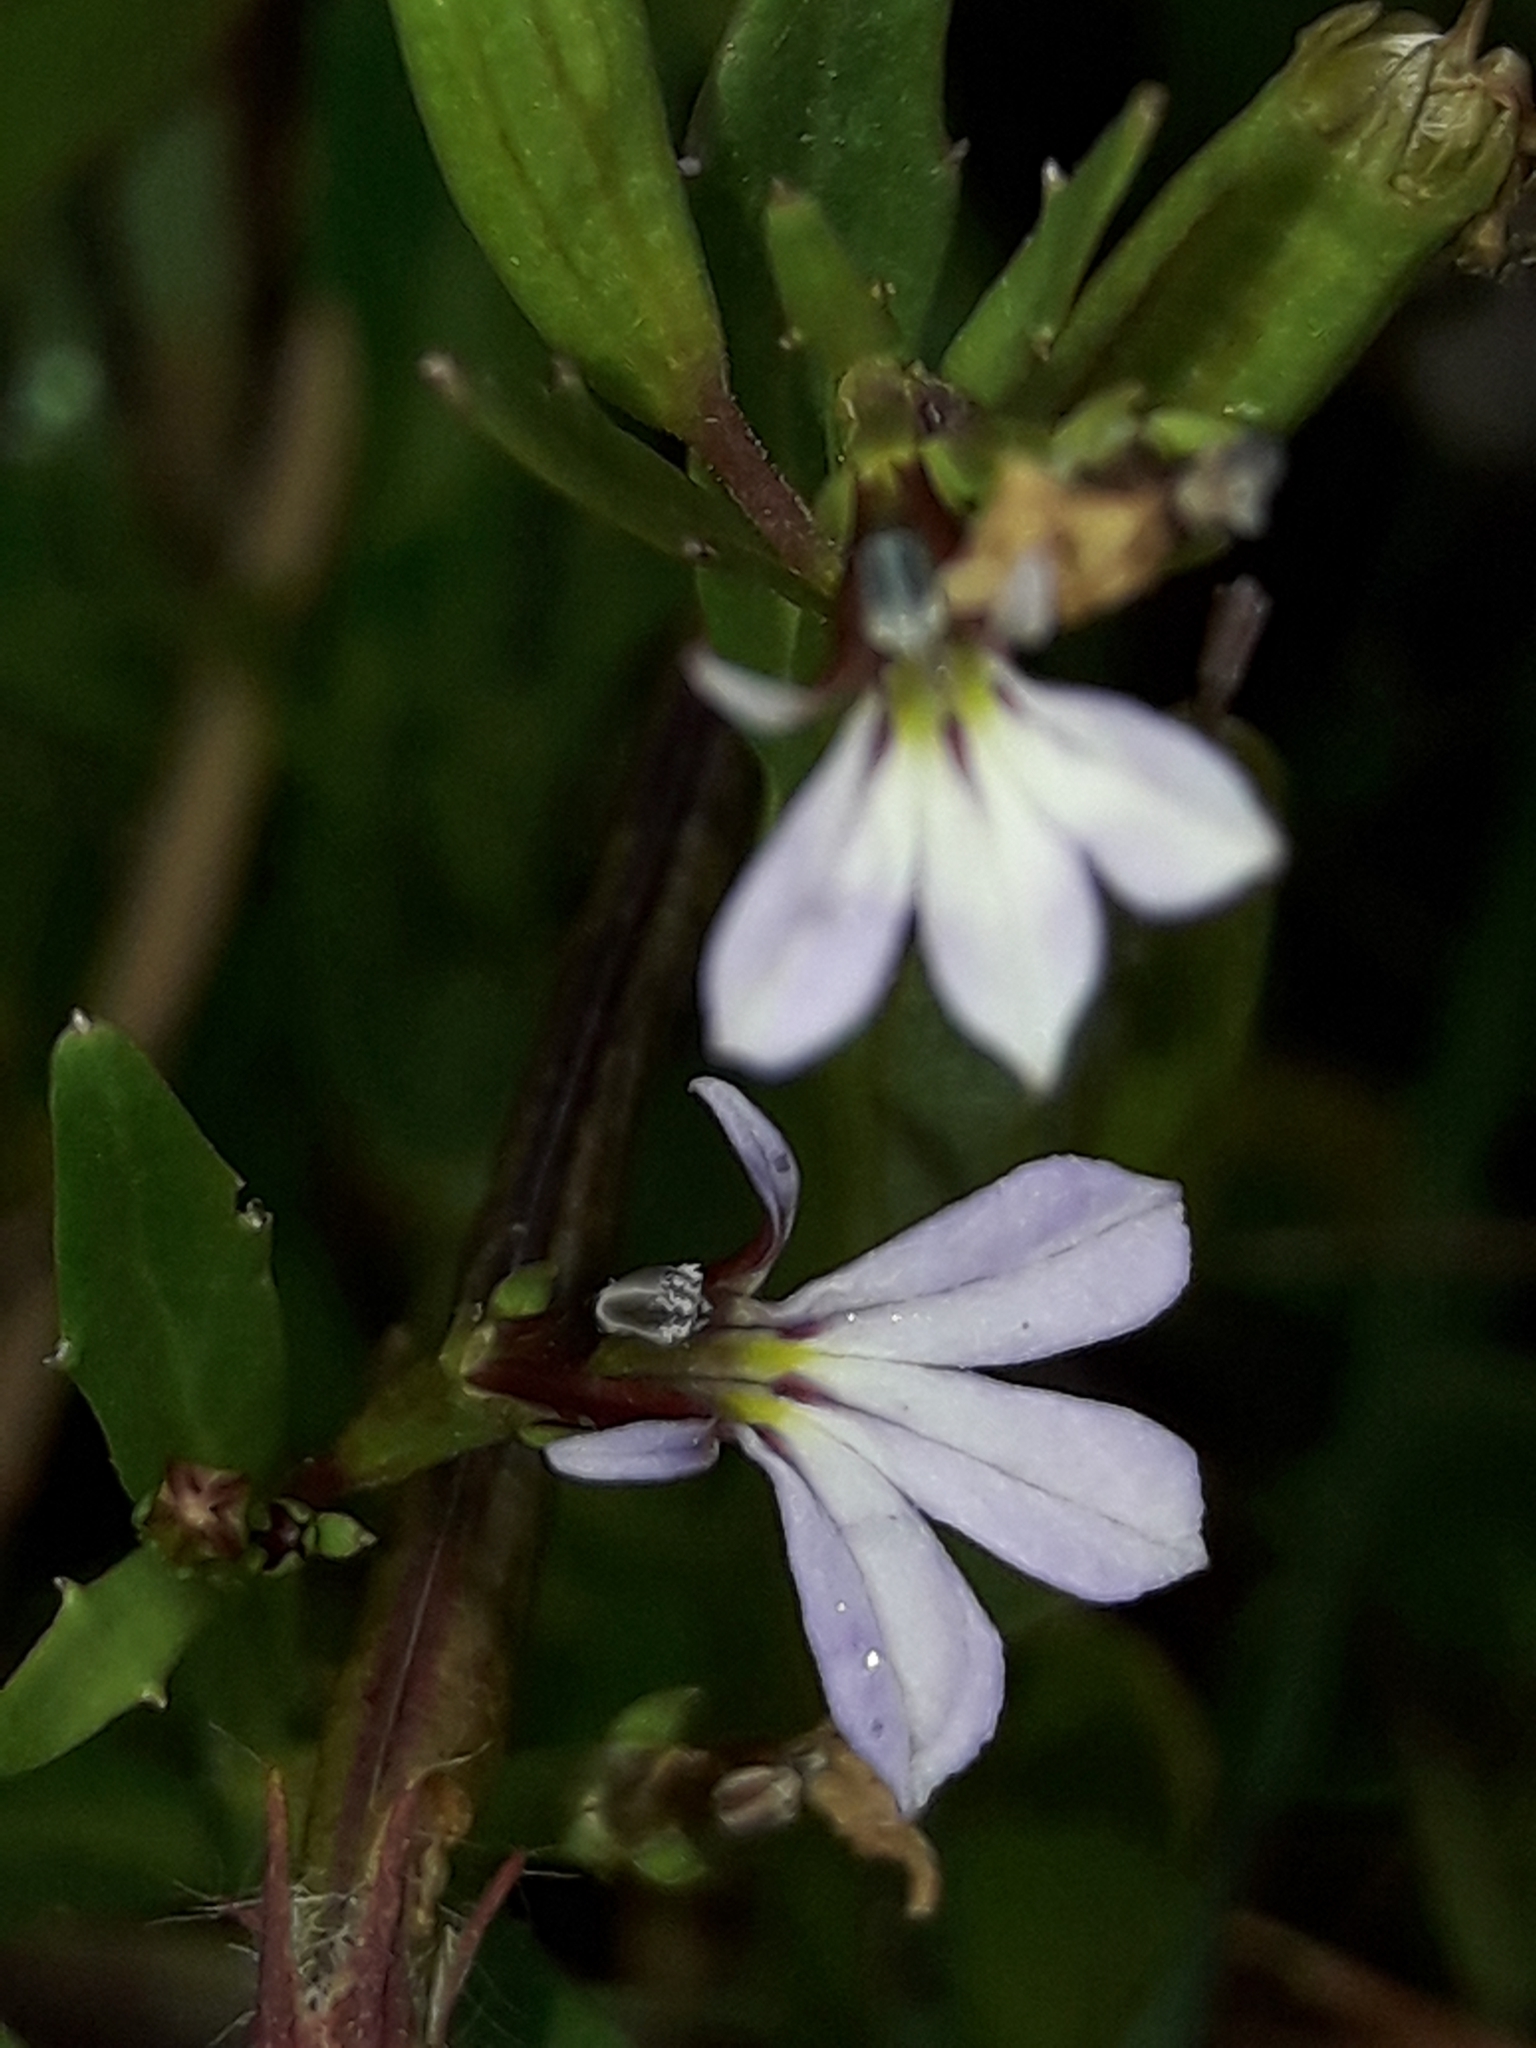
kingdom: Plantae
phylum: Tracheophyta
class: Magnoliopsida
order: Asterales
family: Campanulaceae
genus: Lobelia
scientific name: Lobelia anceps
